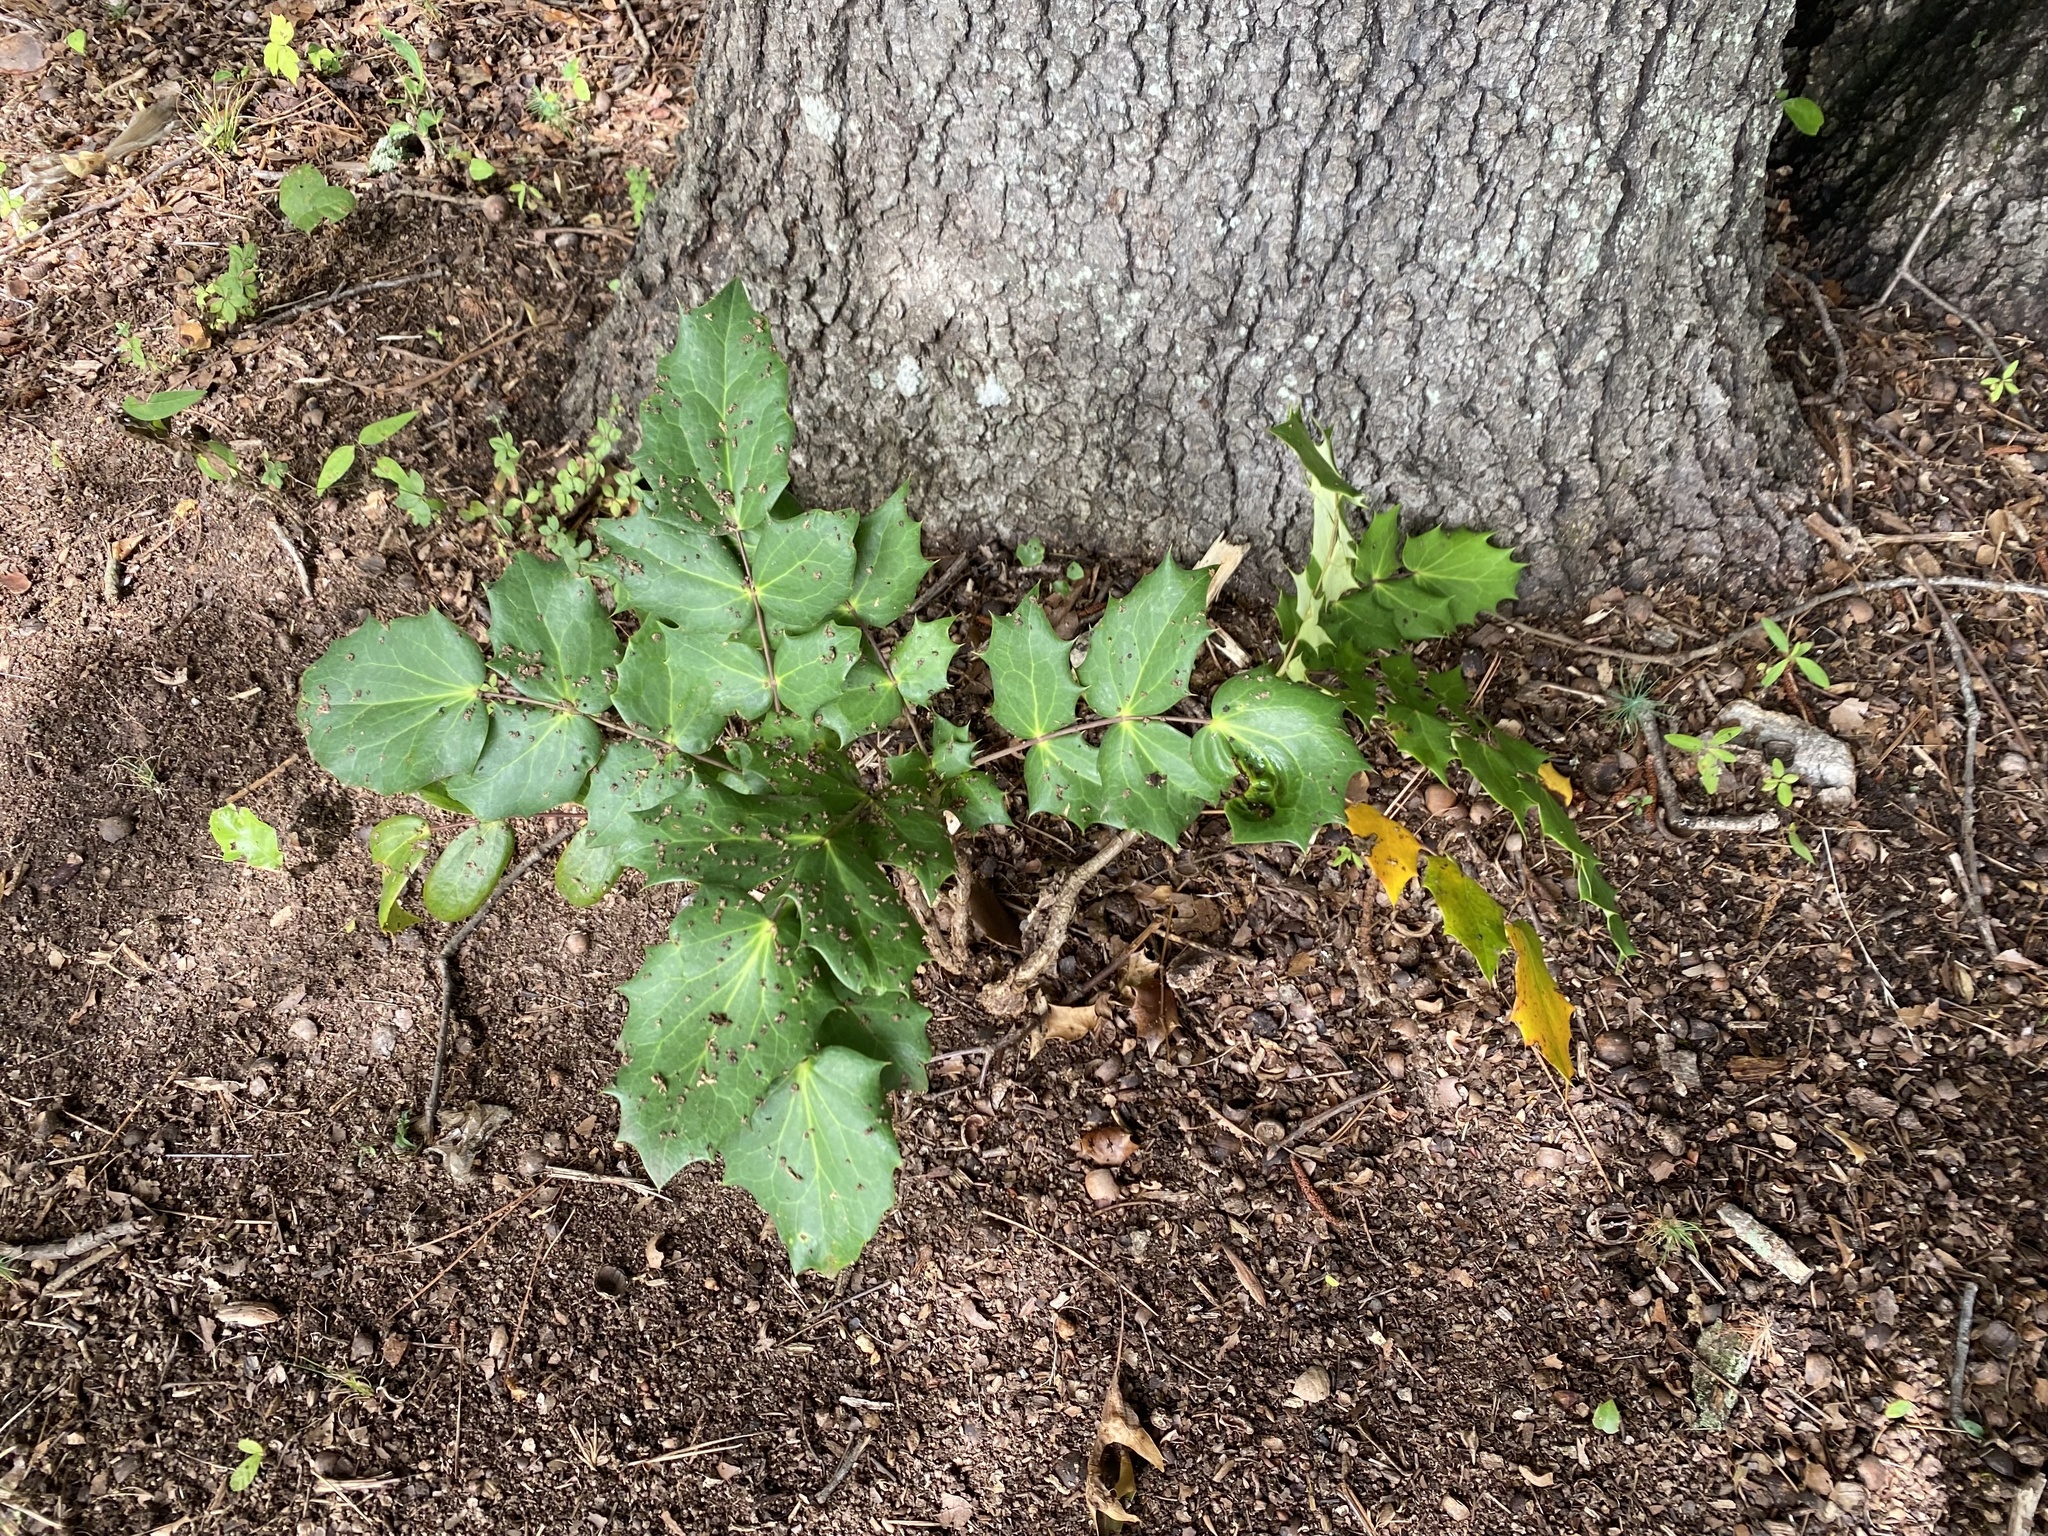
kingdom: Plantae
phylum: Tracheophyta
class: Magnoliopsida
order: Ranunculales
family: Berberidaceae
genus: Mahonia
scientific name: Mahonia bealei
